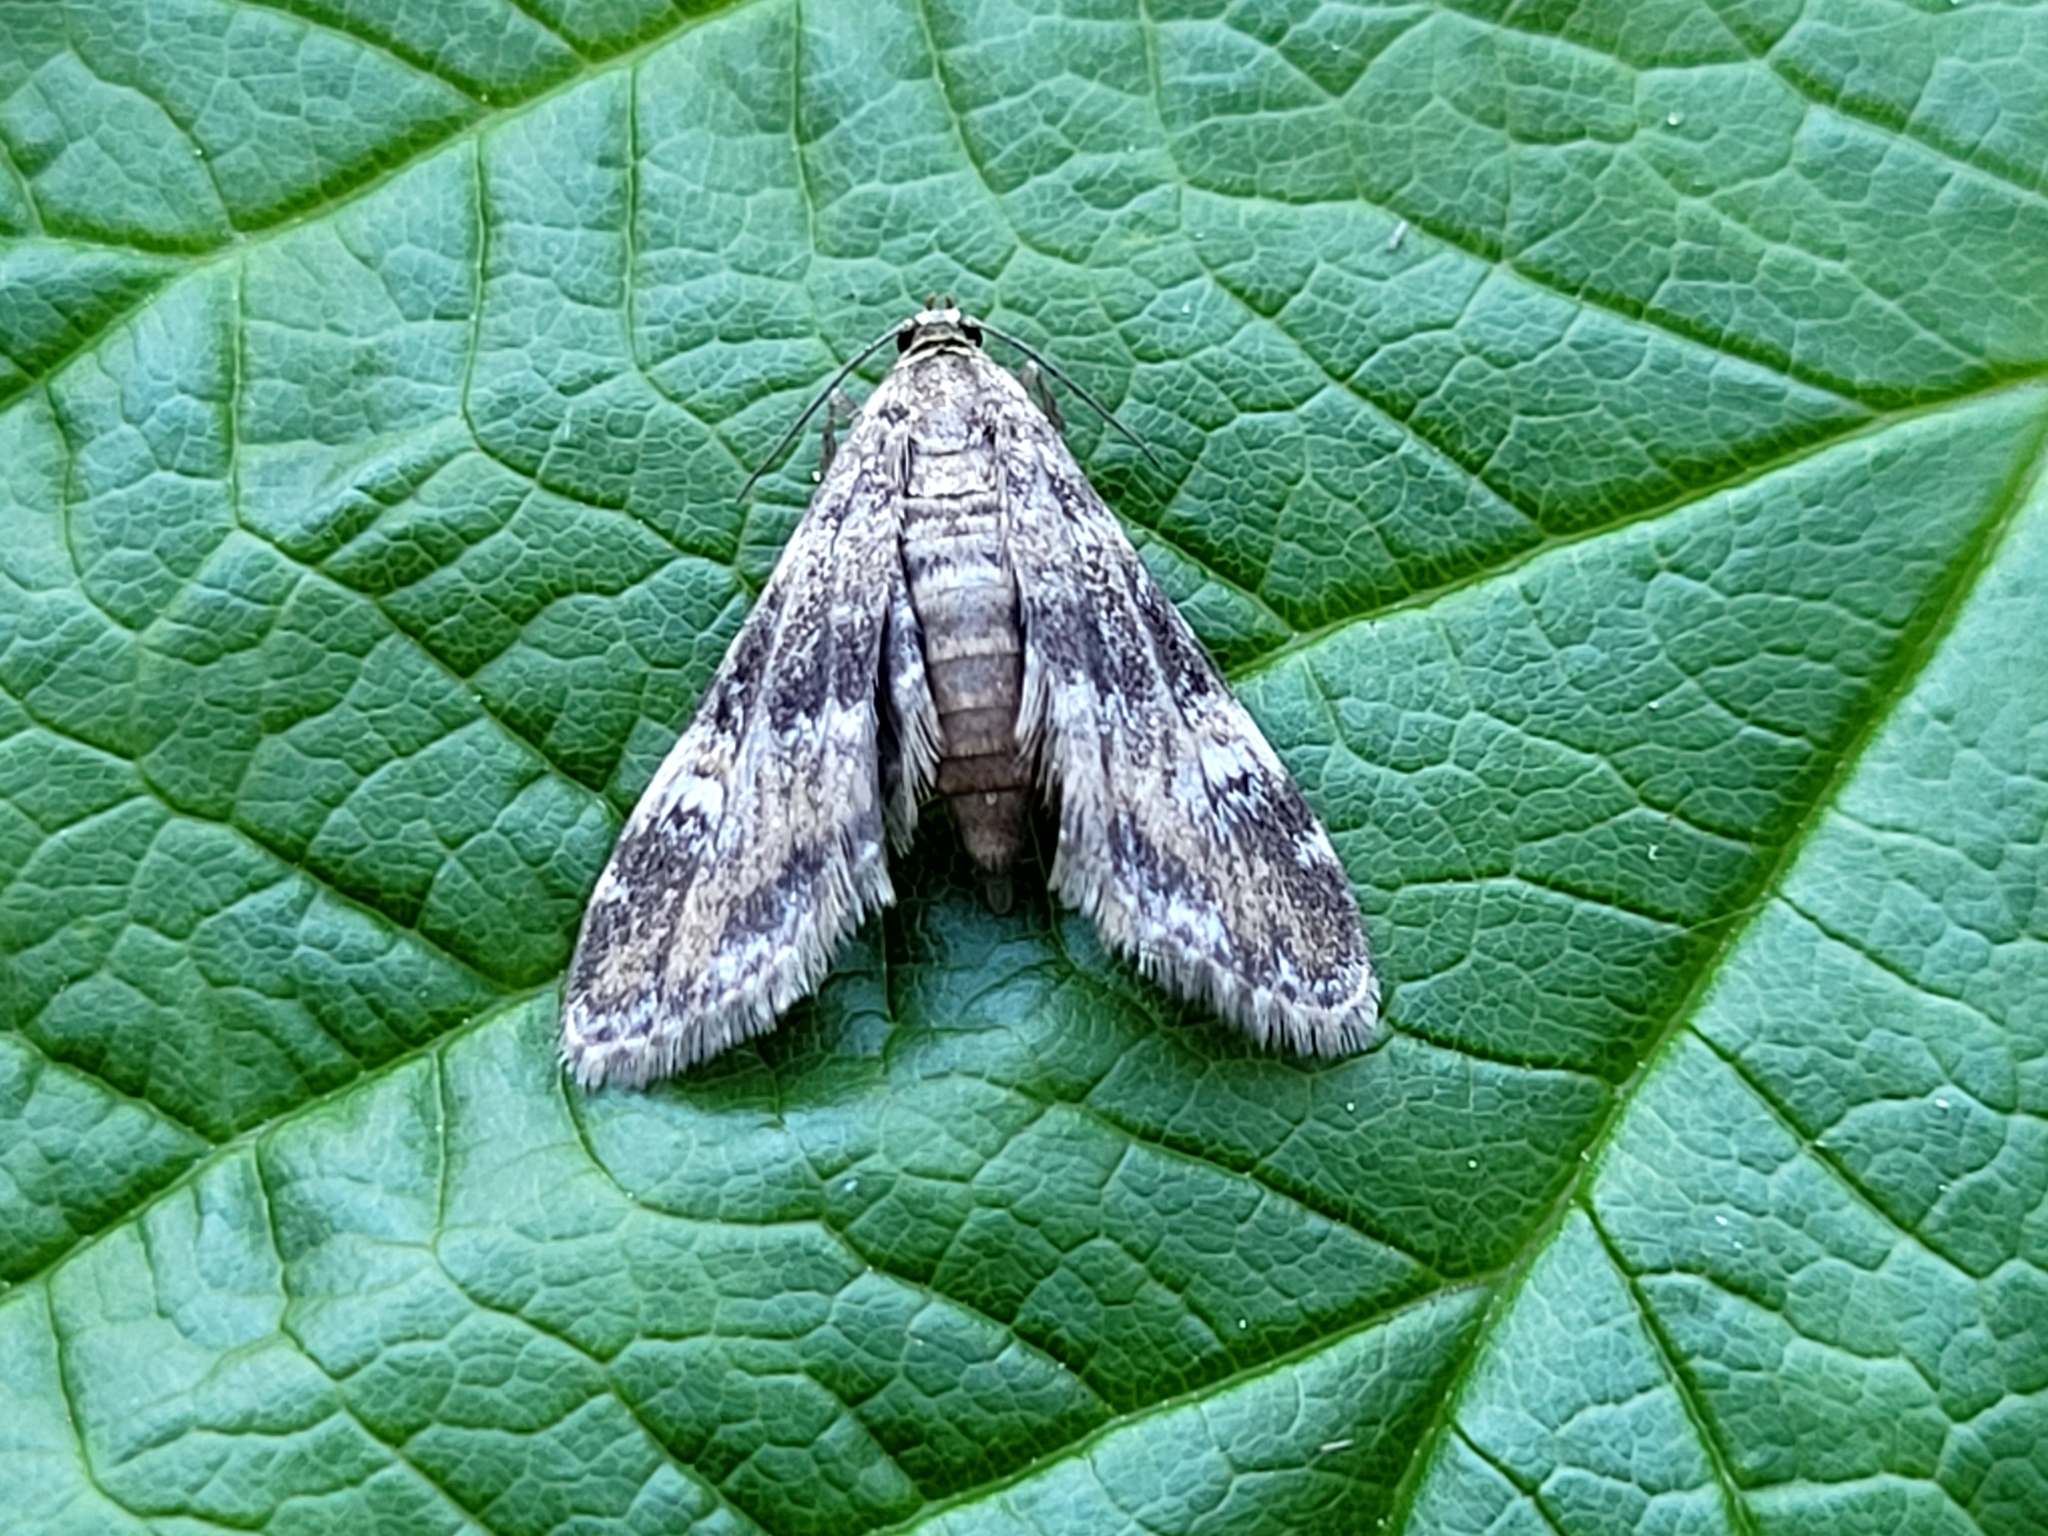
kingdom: Animalia
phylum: Arthropoda
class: Insecta
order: Lepidoptera
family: Crambidae
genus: Elophila
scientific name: Elophila obliteralis
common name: Waterlily leafcutter moth
